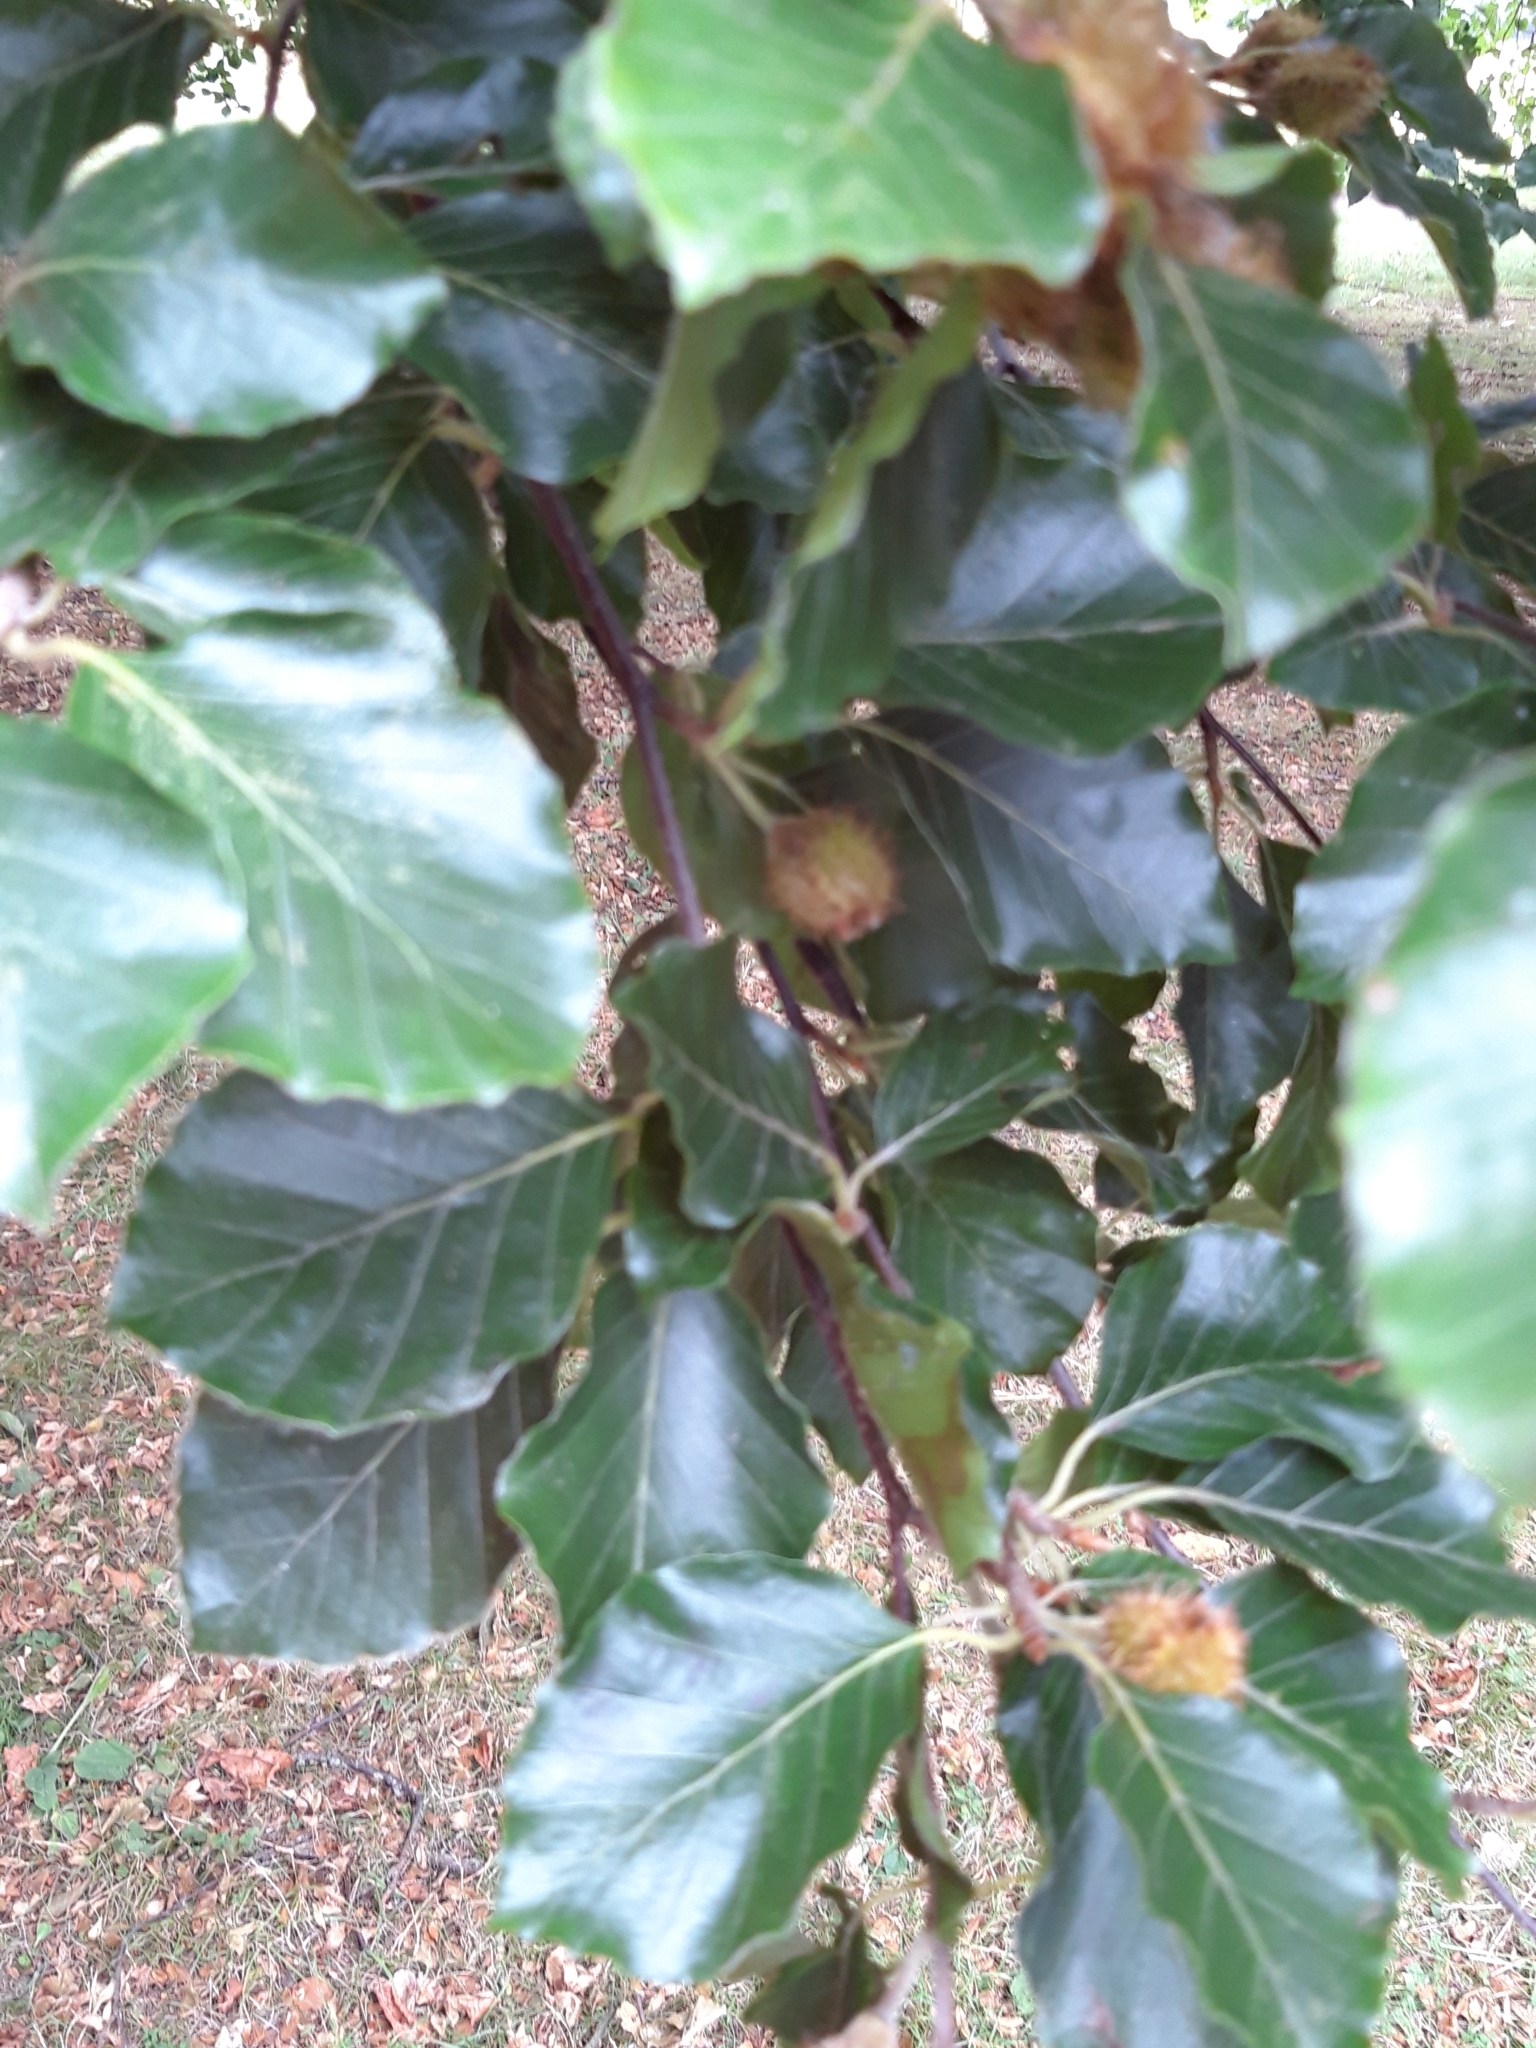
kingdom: Plantae
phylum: Tracheophyta
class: Magnoliopsida
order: Fagales
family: Fagaceae
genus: Fagus
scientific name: Fagus sylvatica
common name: Beech
